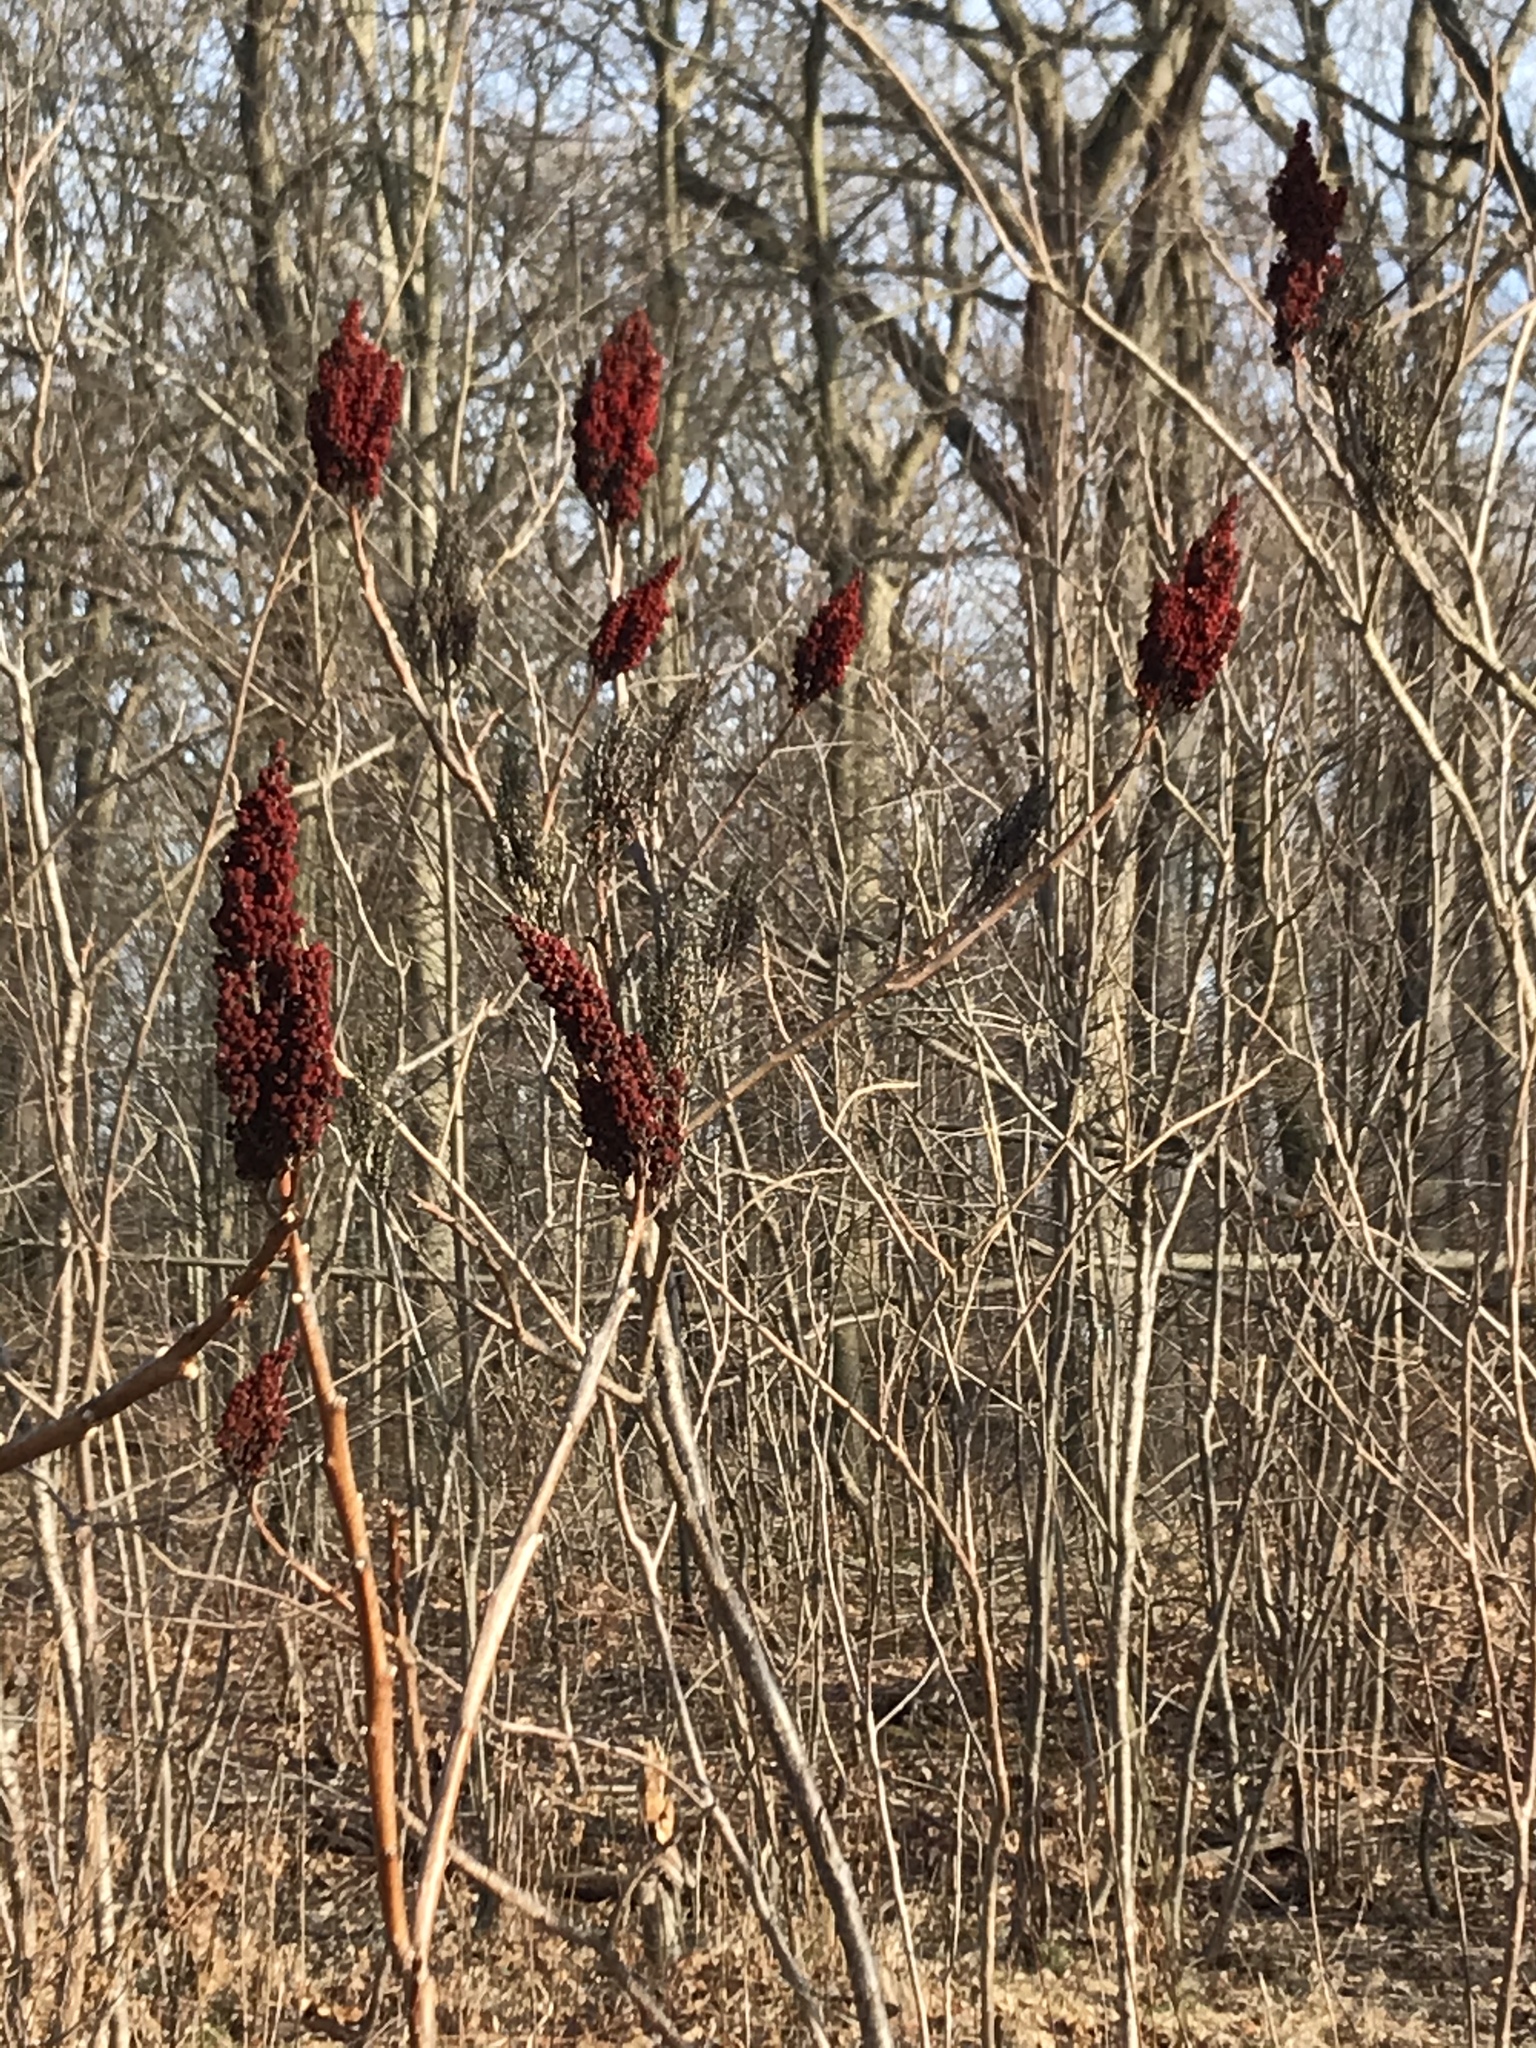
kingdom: Plantae
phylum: Tracheophyta
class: Magnoliopsida
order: Sapindales
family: Anacardiaceae
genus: Rhus
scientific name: Rhus
